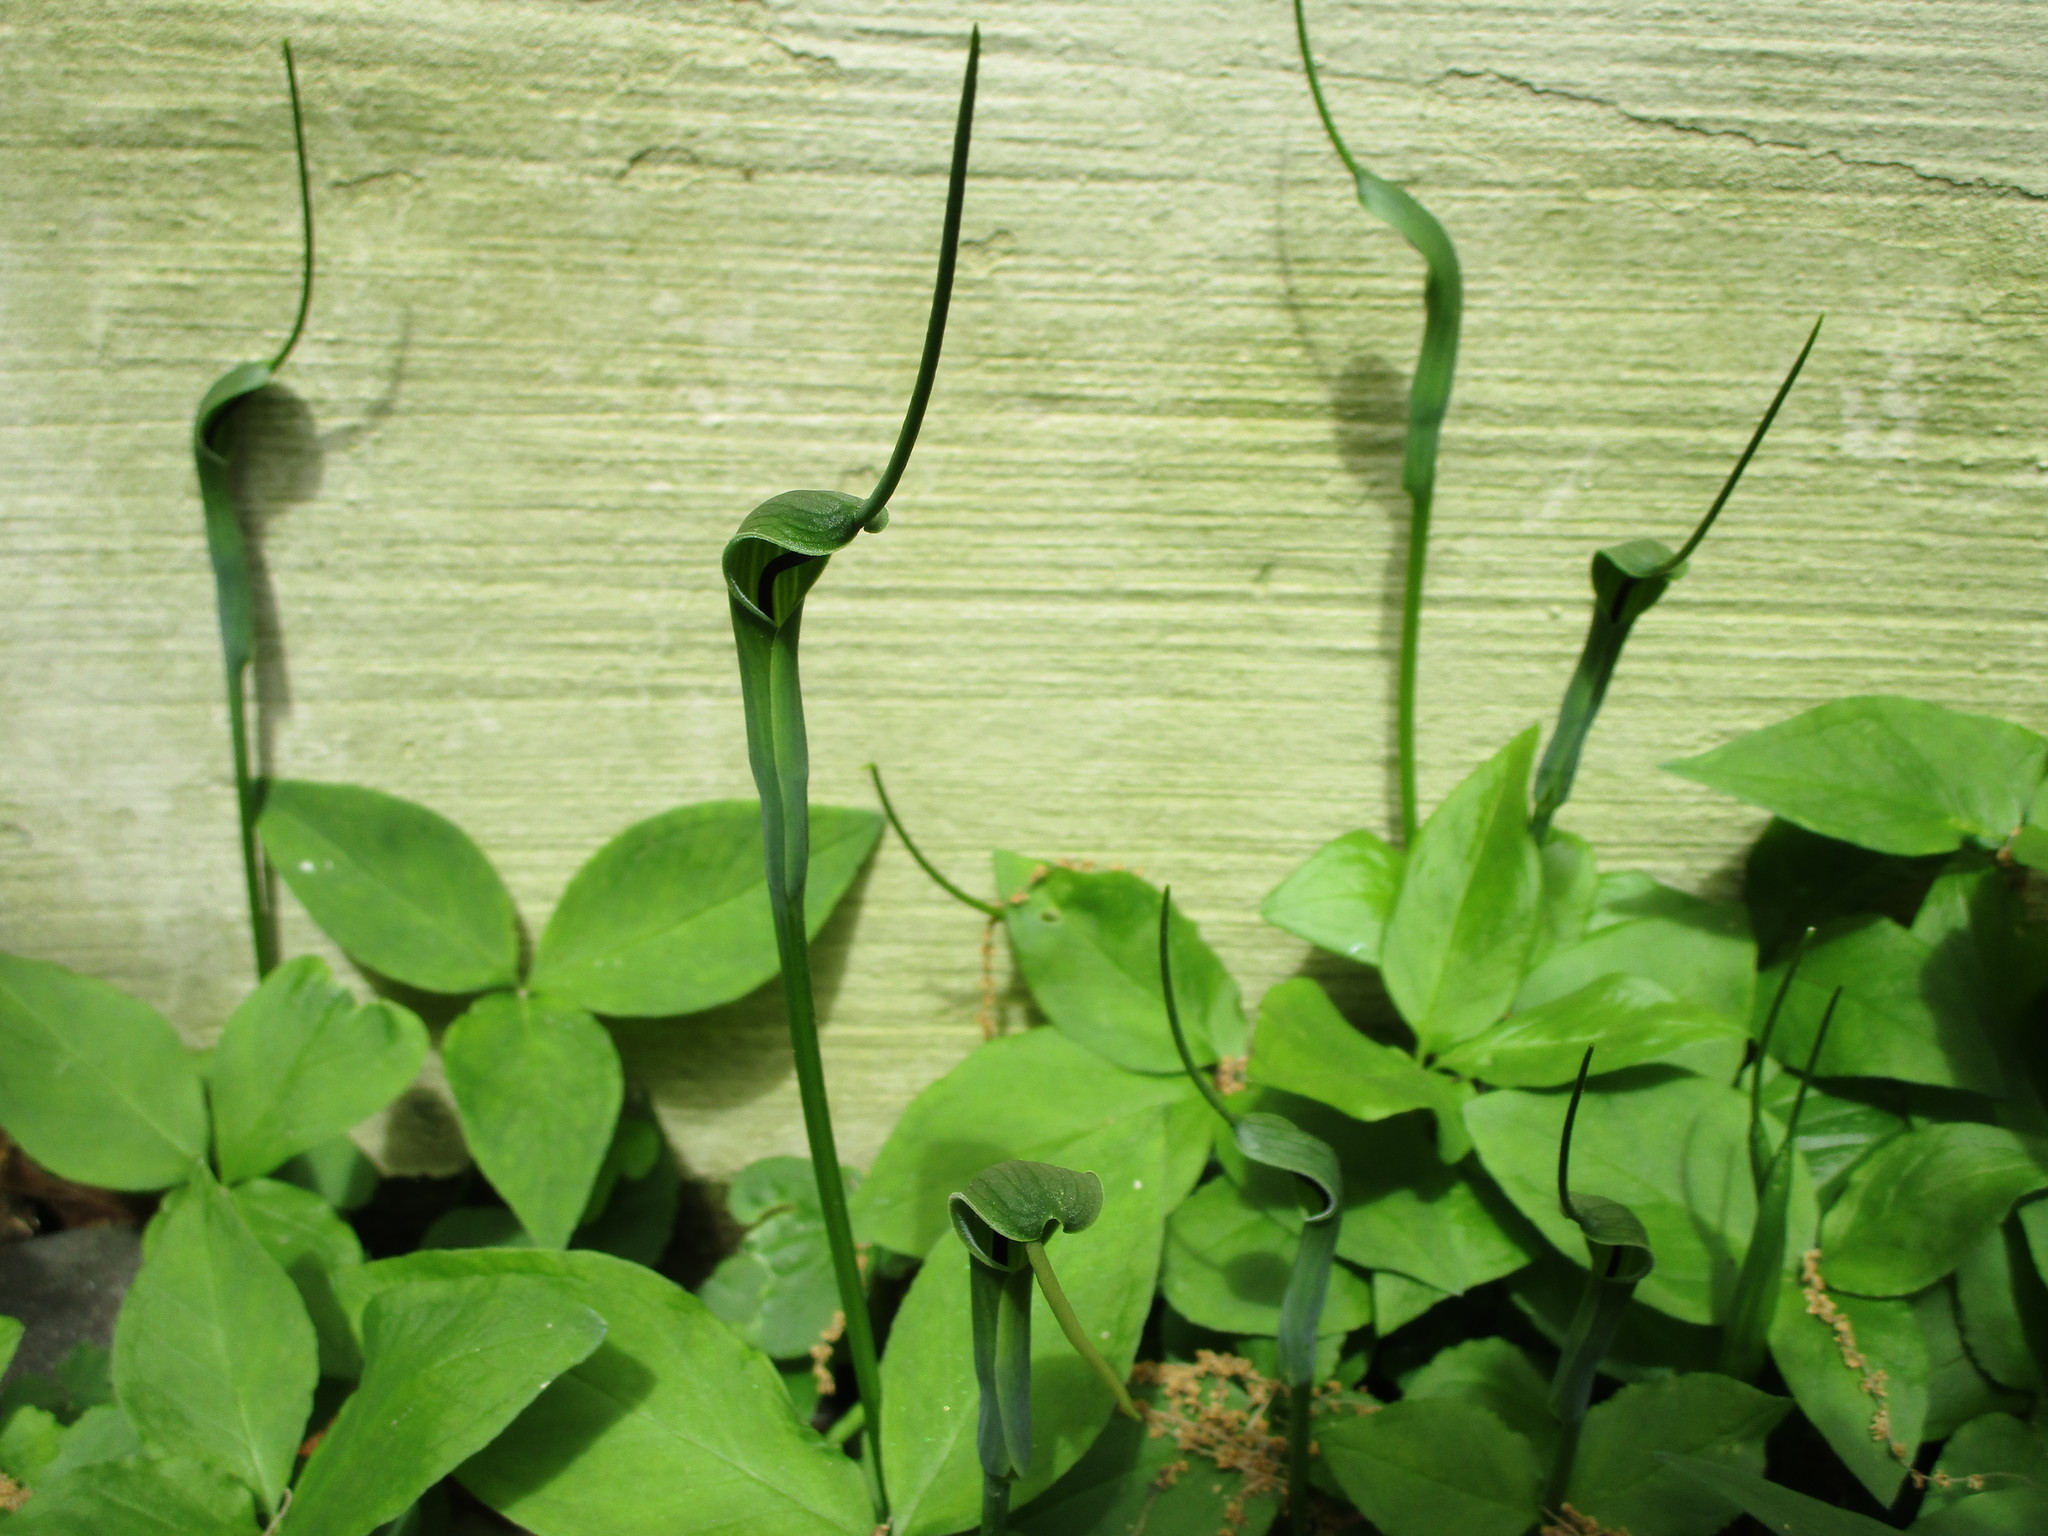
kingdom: Plantae
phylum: Tracheophyta
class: Liliopsida
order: Alismatales
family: Araceae
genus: Pinellia
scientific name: Pinellia ternata
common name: Pinellia
